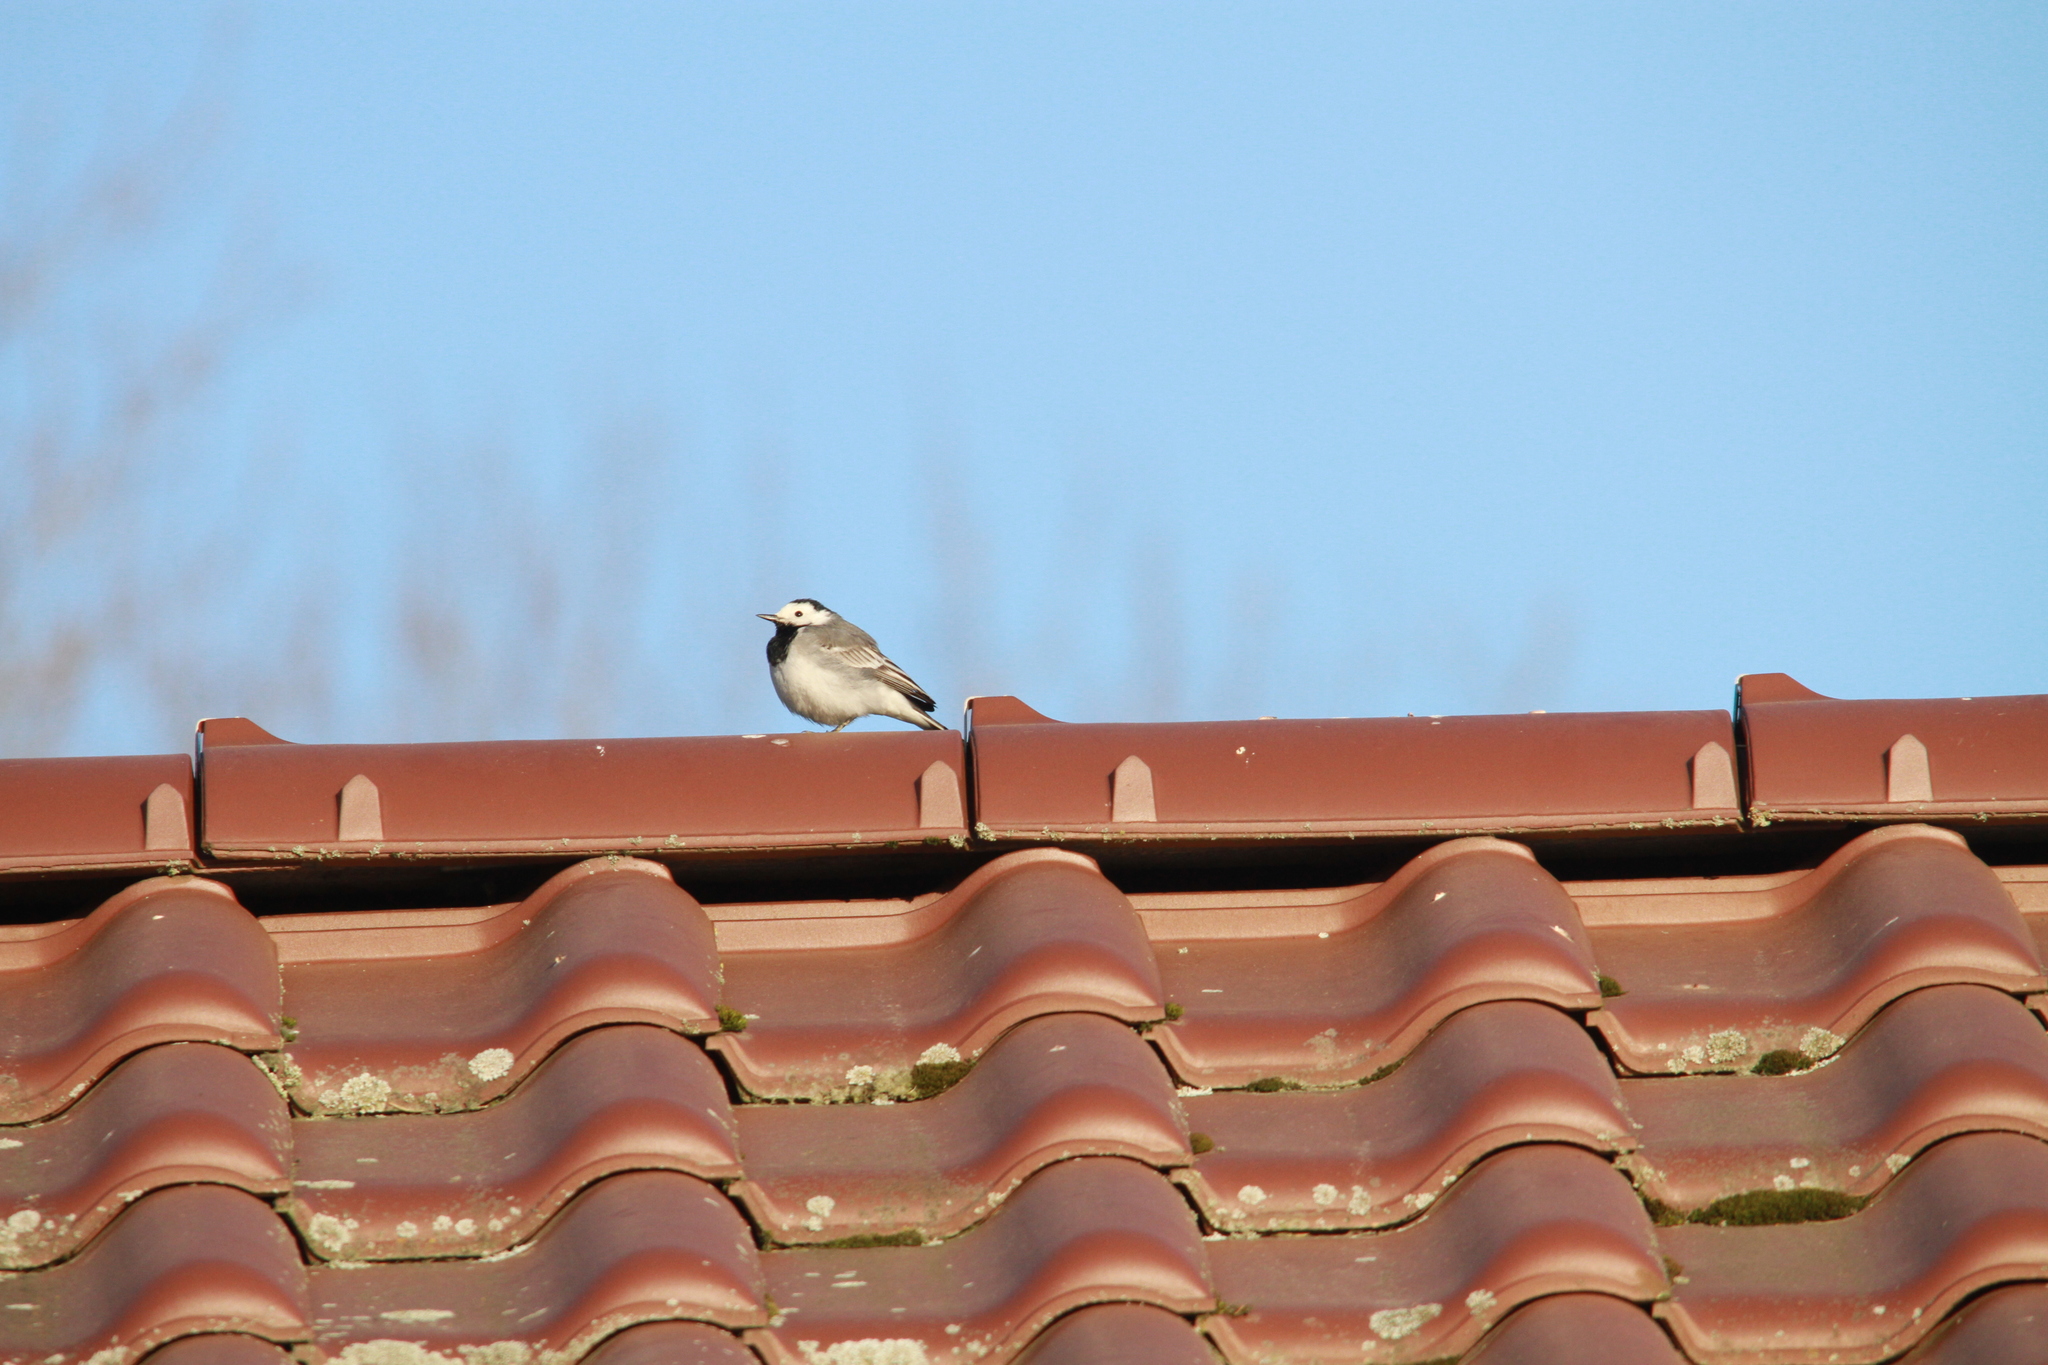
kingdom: Animalia
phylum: Chordata
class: Aves
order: Passeriformes
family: Motacillidae
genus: Motacilla
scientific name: Motacilla alba
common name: White wagtail
